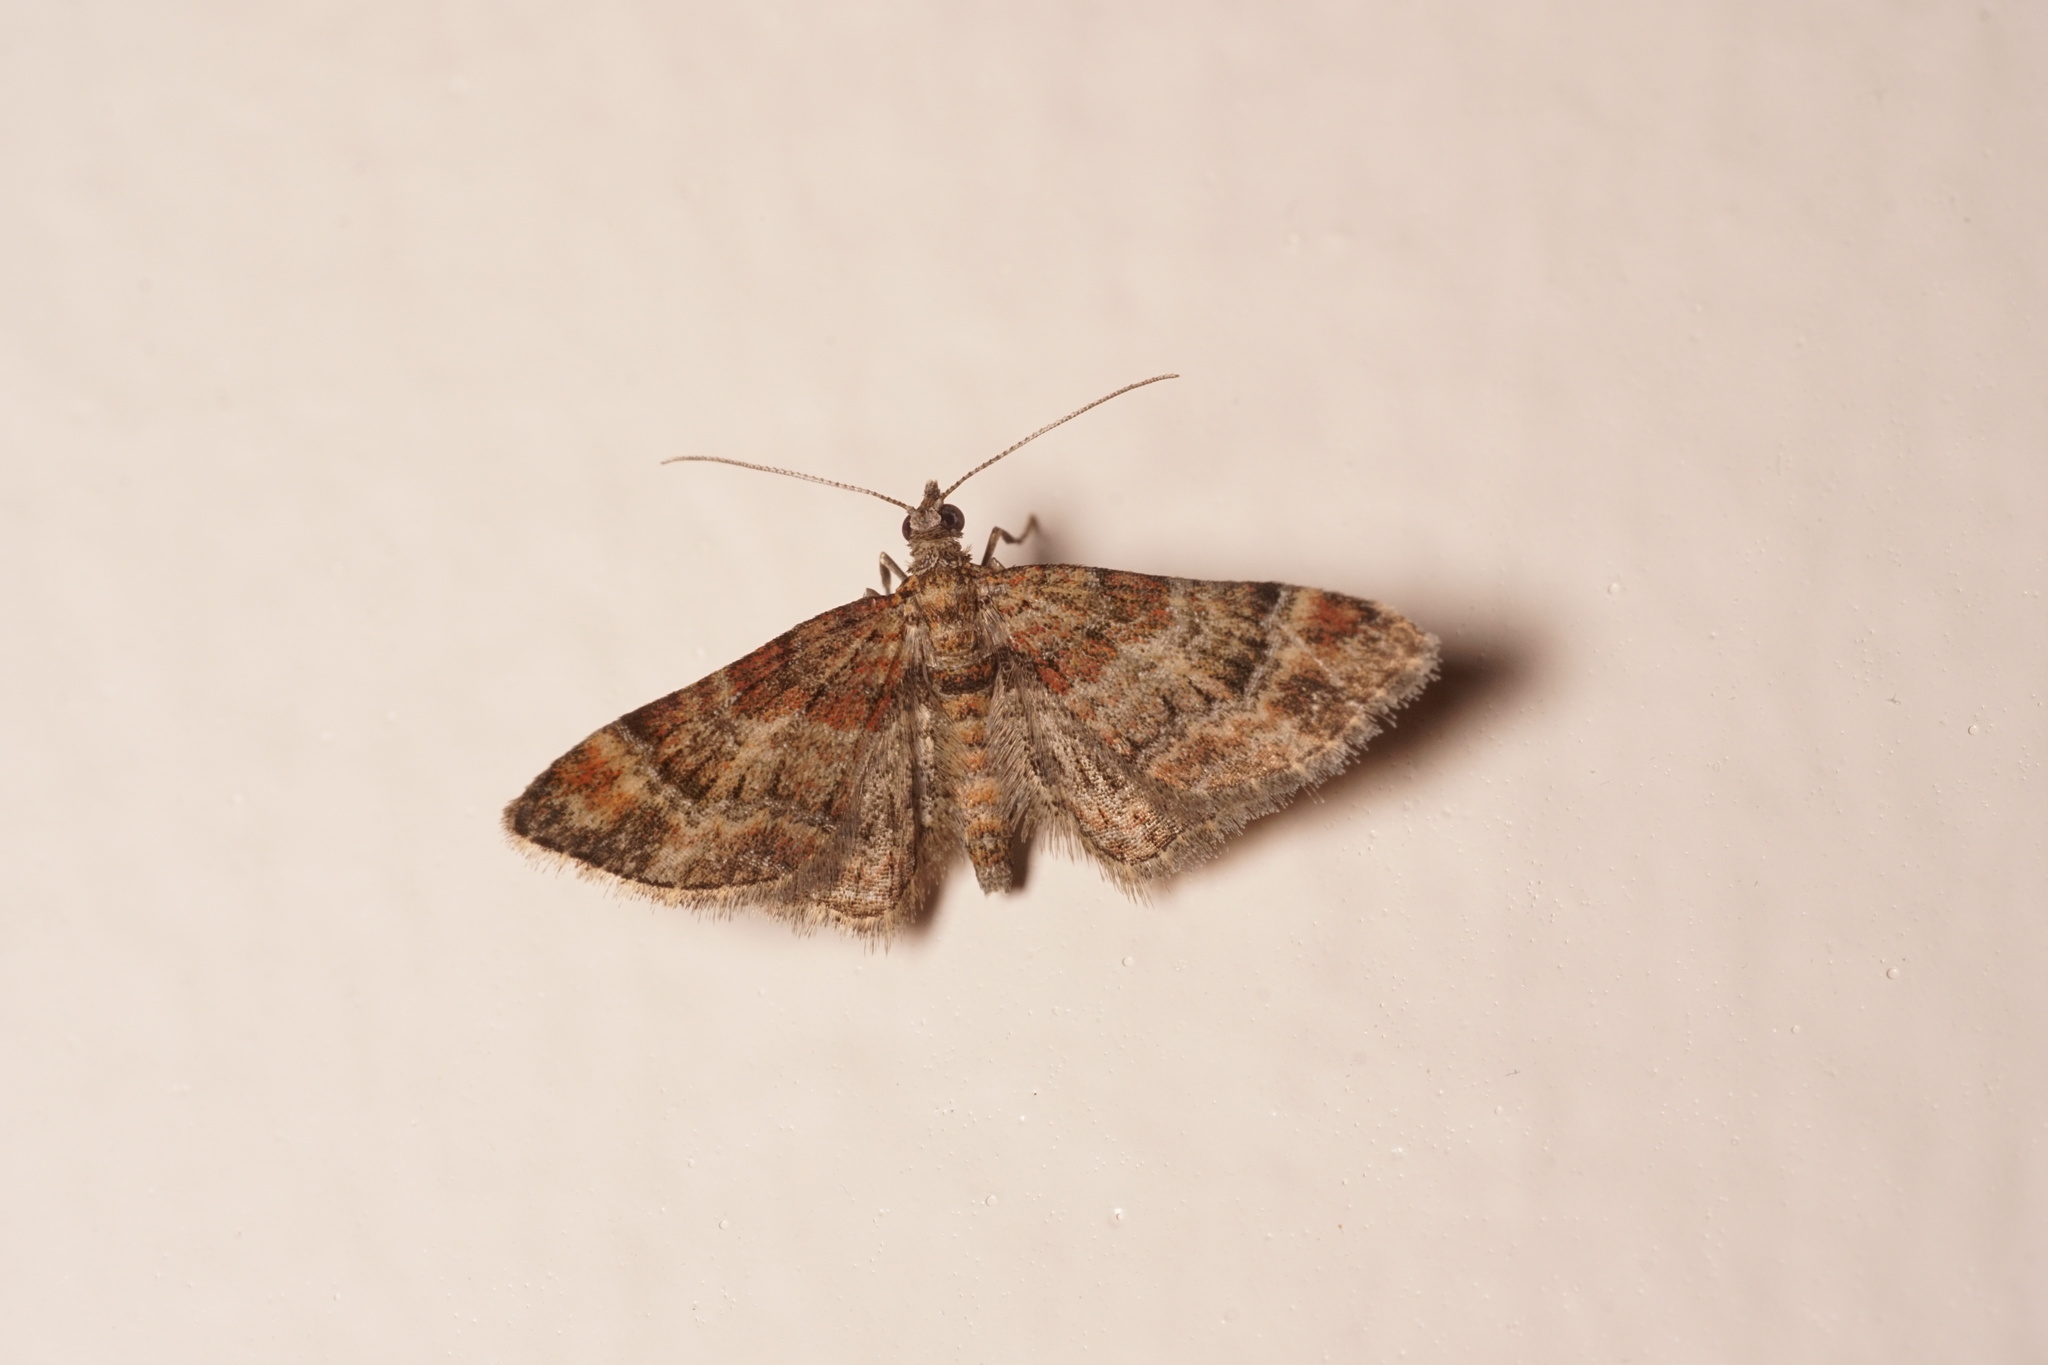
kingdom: Animalia
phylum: Arthropoda
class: Insecta
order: Lepidoptera
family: Geometridae
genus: Gymnoscelis
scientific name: Gymnoscelis rufifasciata
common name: Double-striped pug
